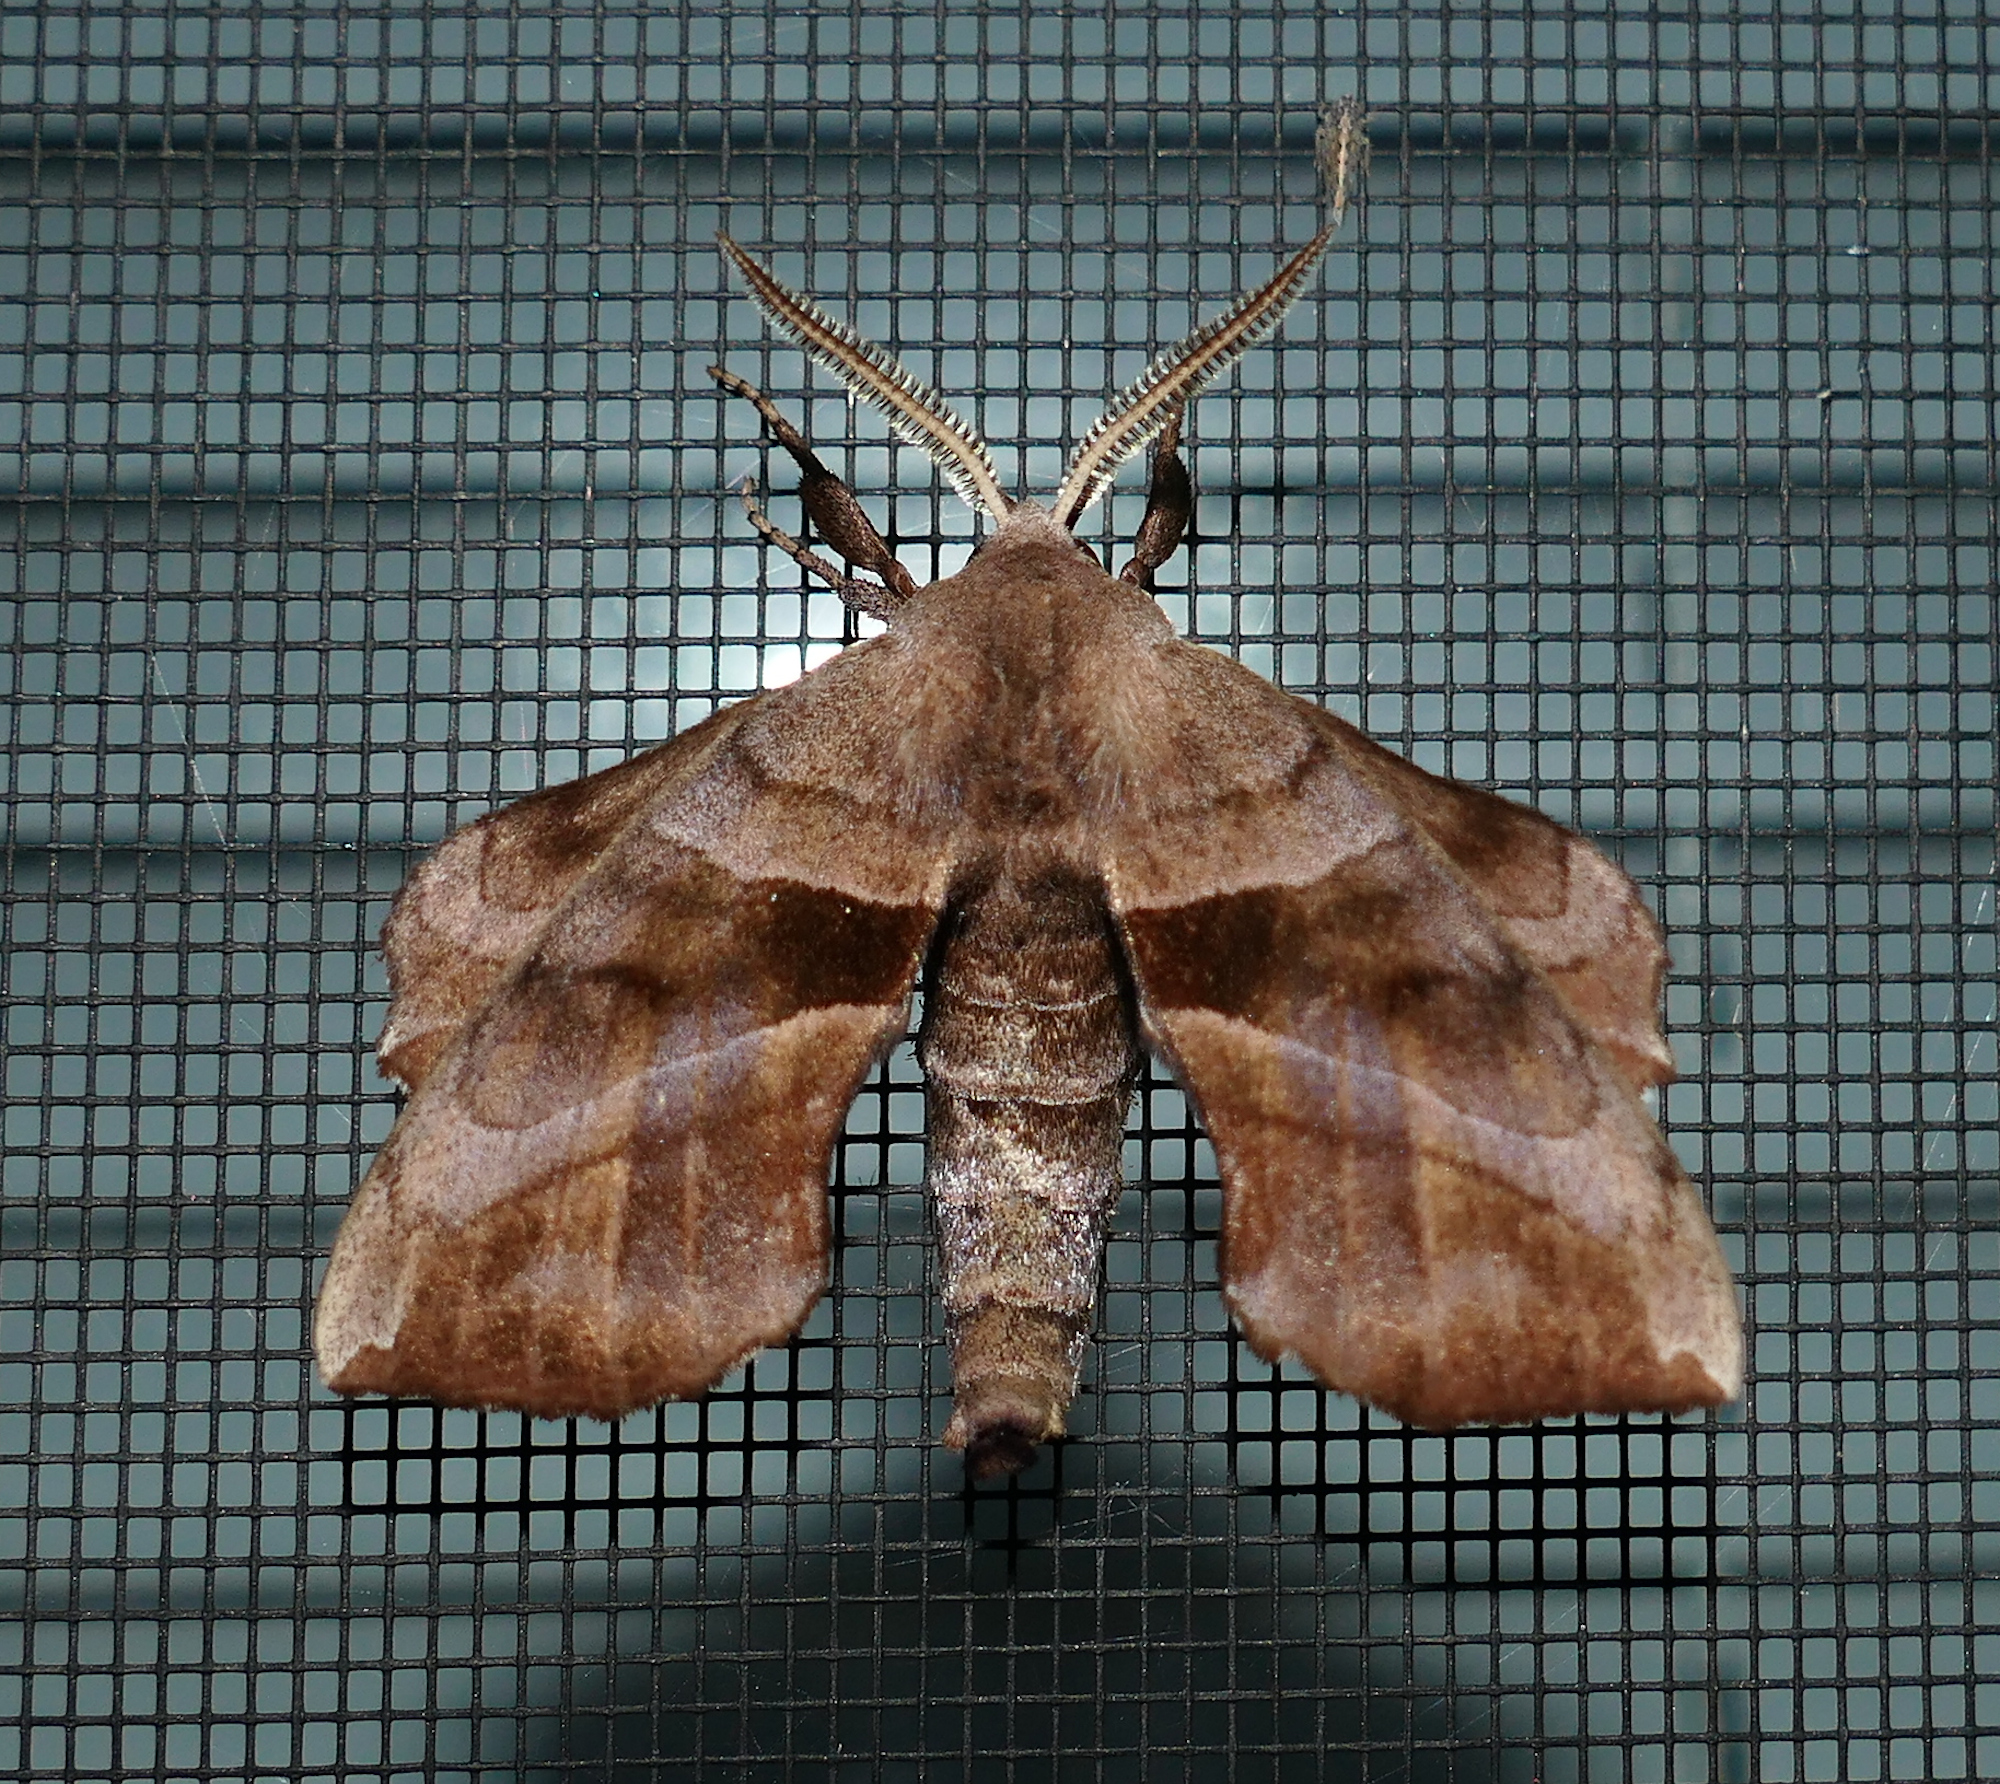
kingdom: Animalia
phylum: Arthropoda
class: Insecta
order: Lepidoptera
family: Sphingidae
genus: Amorpha
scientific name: Amorpha juglandis
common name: Walnut sphinx
